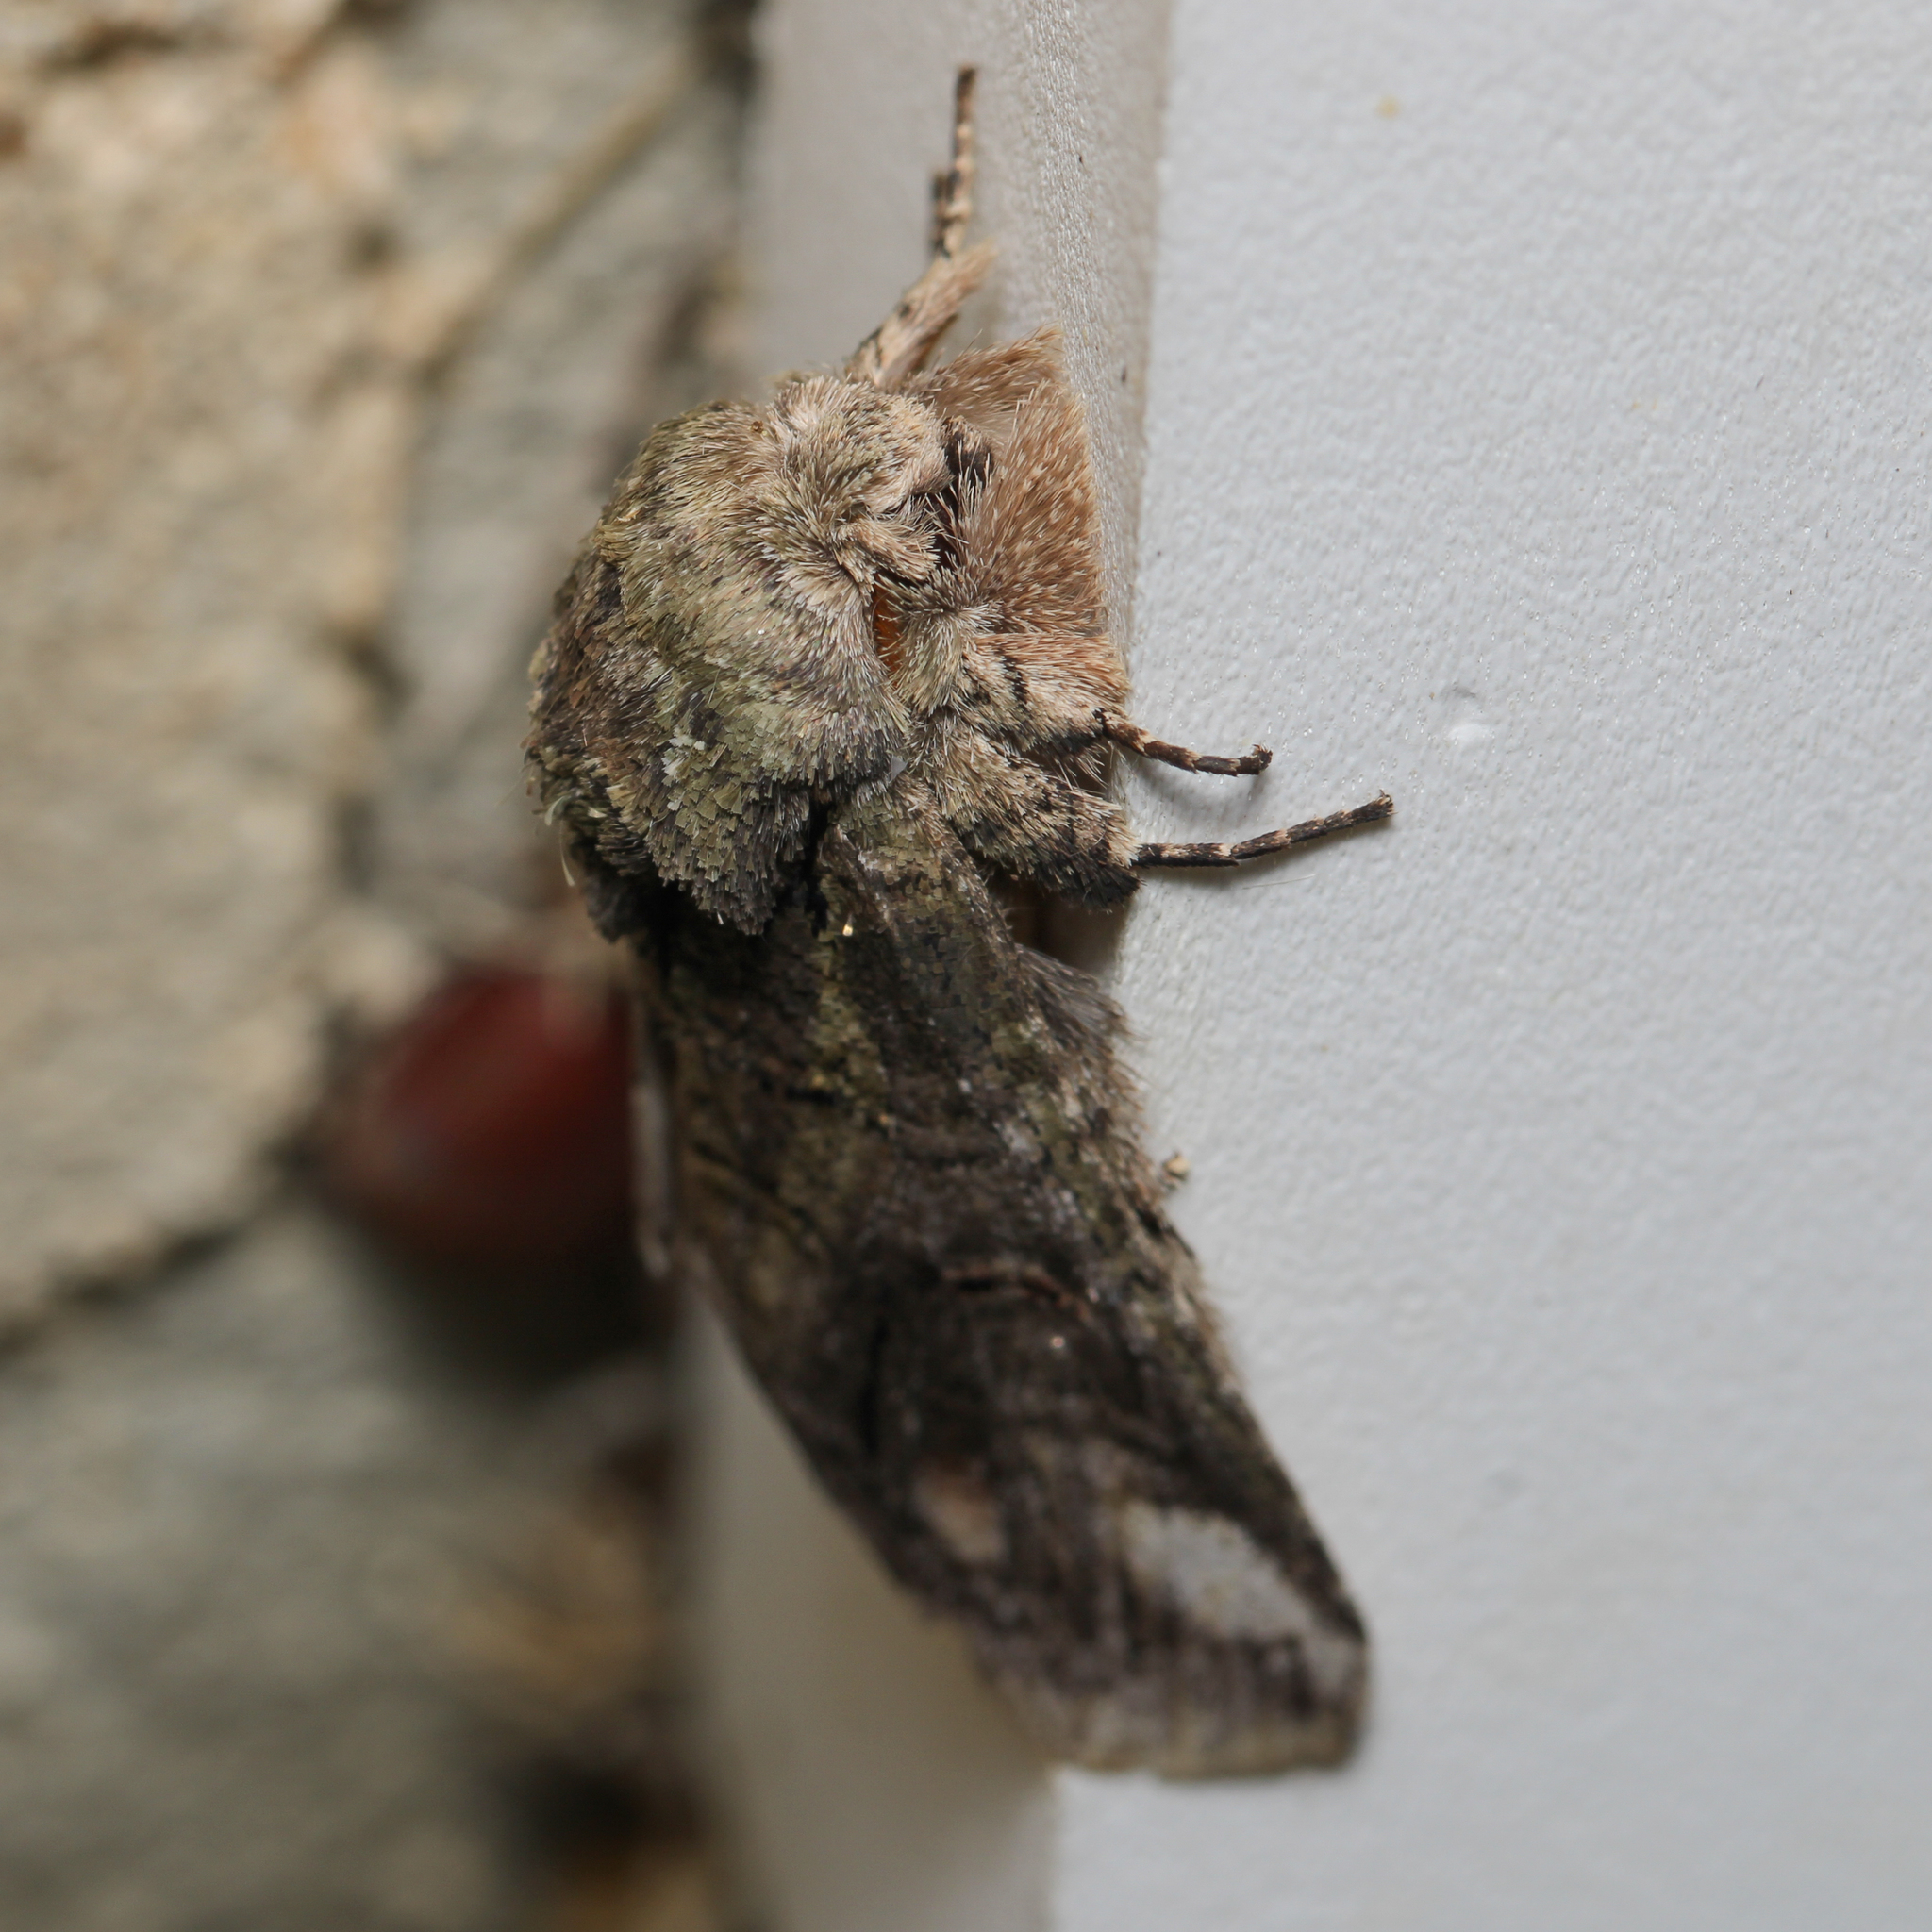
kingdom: Animalia
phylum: Arthropoda
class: Insecta
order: Lepidoptera
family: Notodontidae
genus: Disphragis
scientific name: Disphragis Cecrita guttivitta
